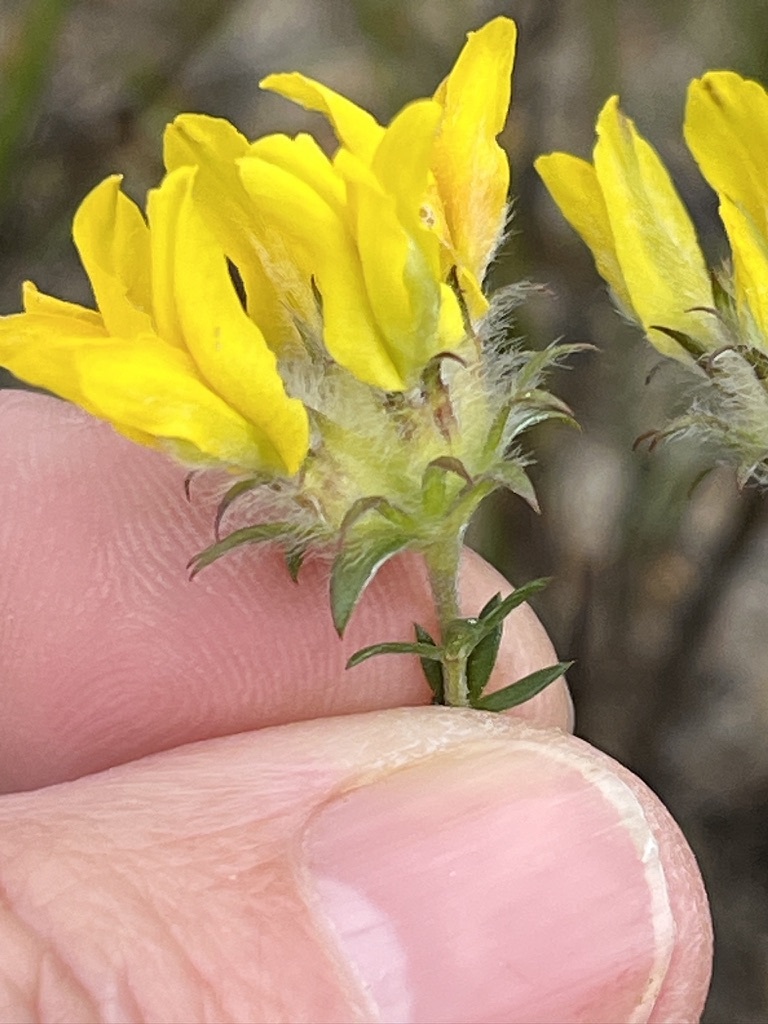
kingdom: Plantae
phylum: Tracheophyta
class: Magnoliopsida
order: Fabales
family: Fabaceae
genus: Aspalathus
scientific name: Aspalathus tridentata
